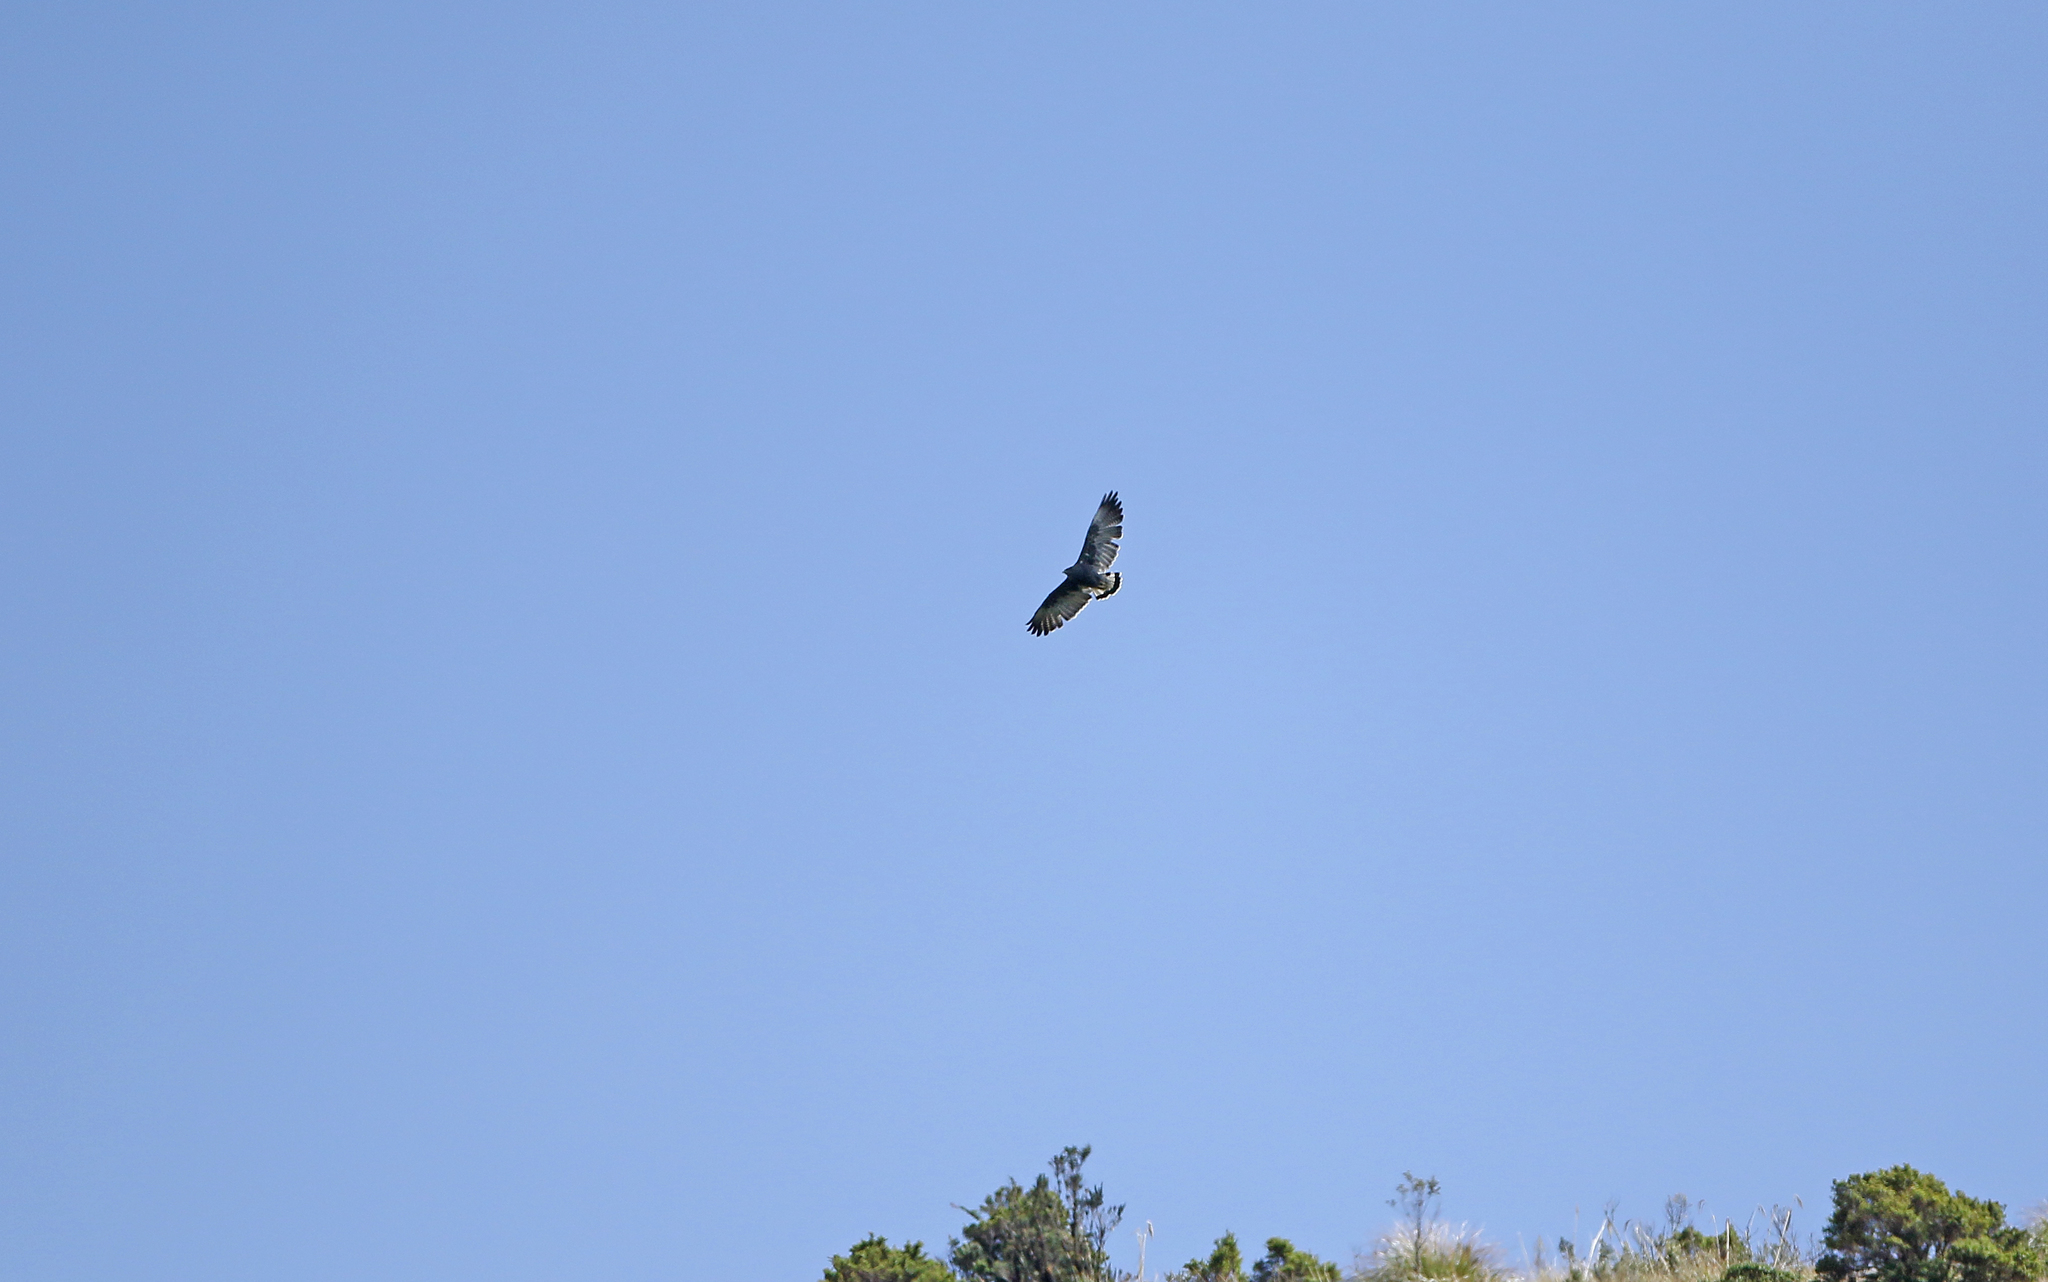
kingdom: Animalia
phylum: Chordata
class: Aves
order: Accipitriformes
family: Accipitridae
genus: Buteo
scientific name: Buteo polyosoma
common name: Variable hawk
